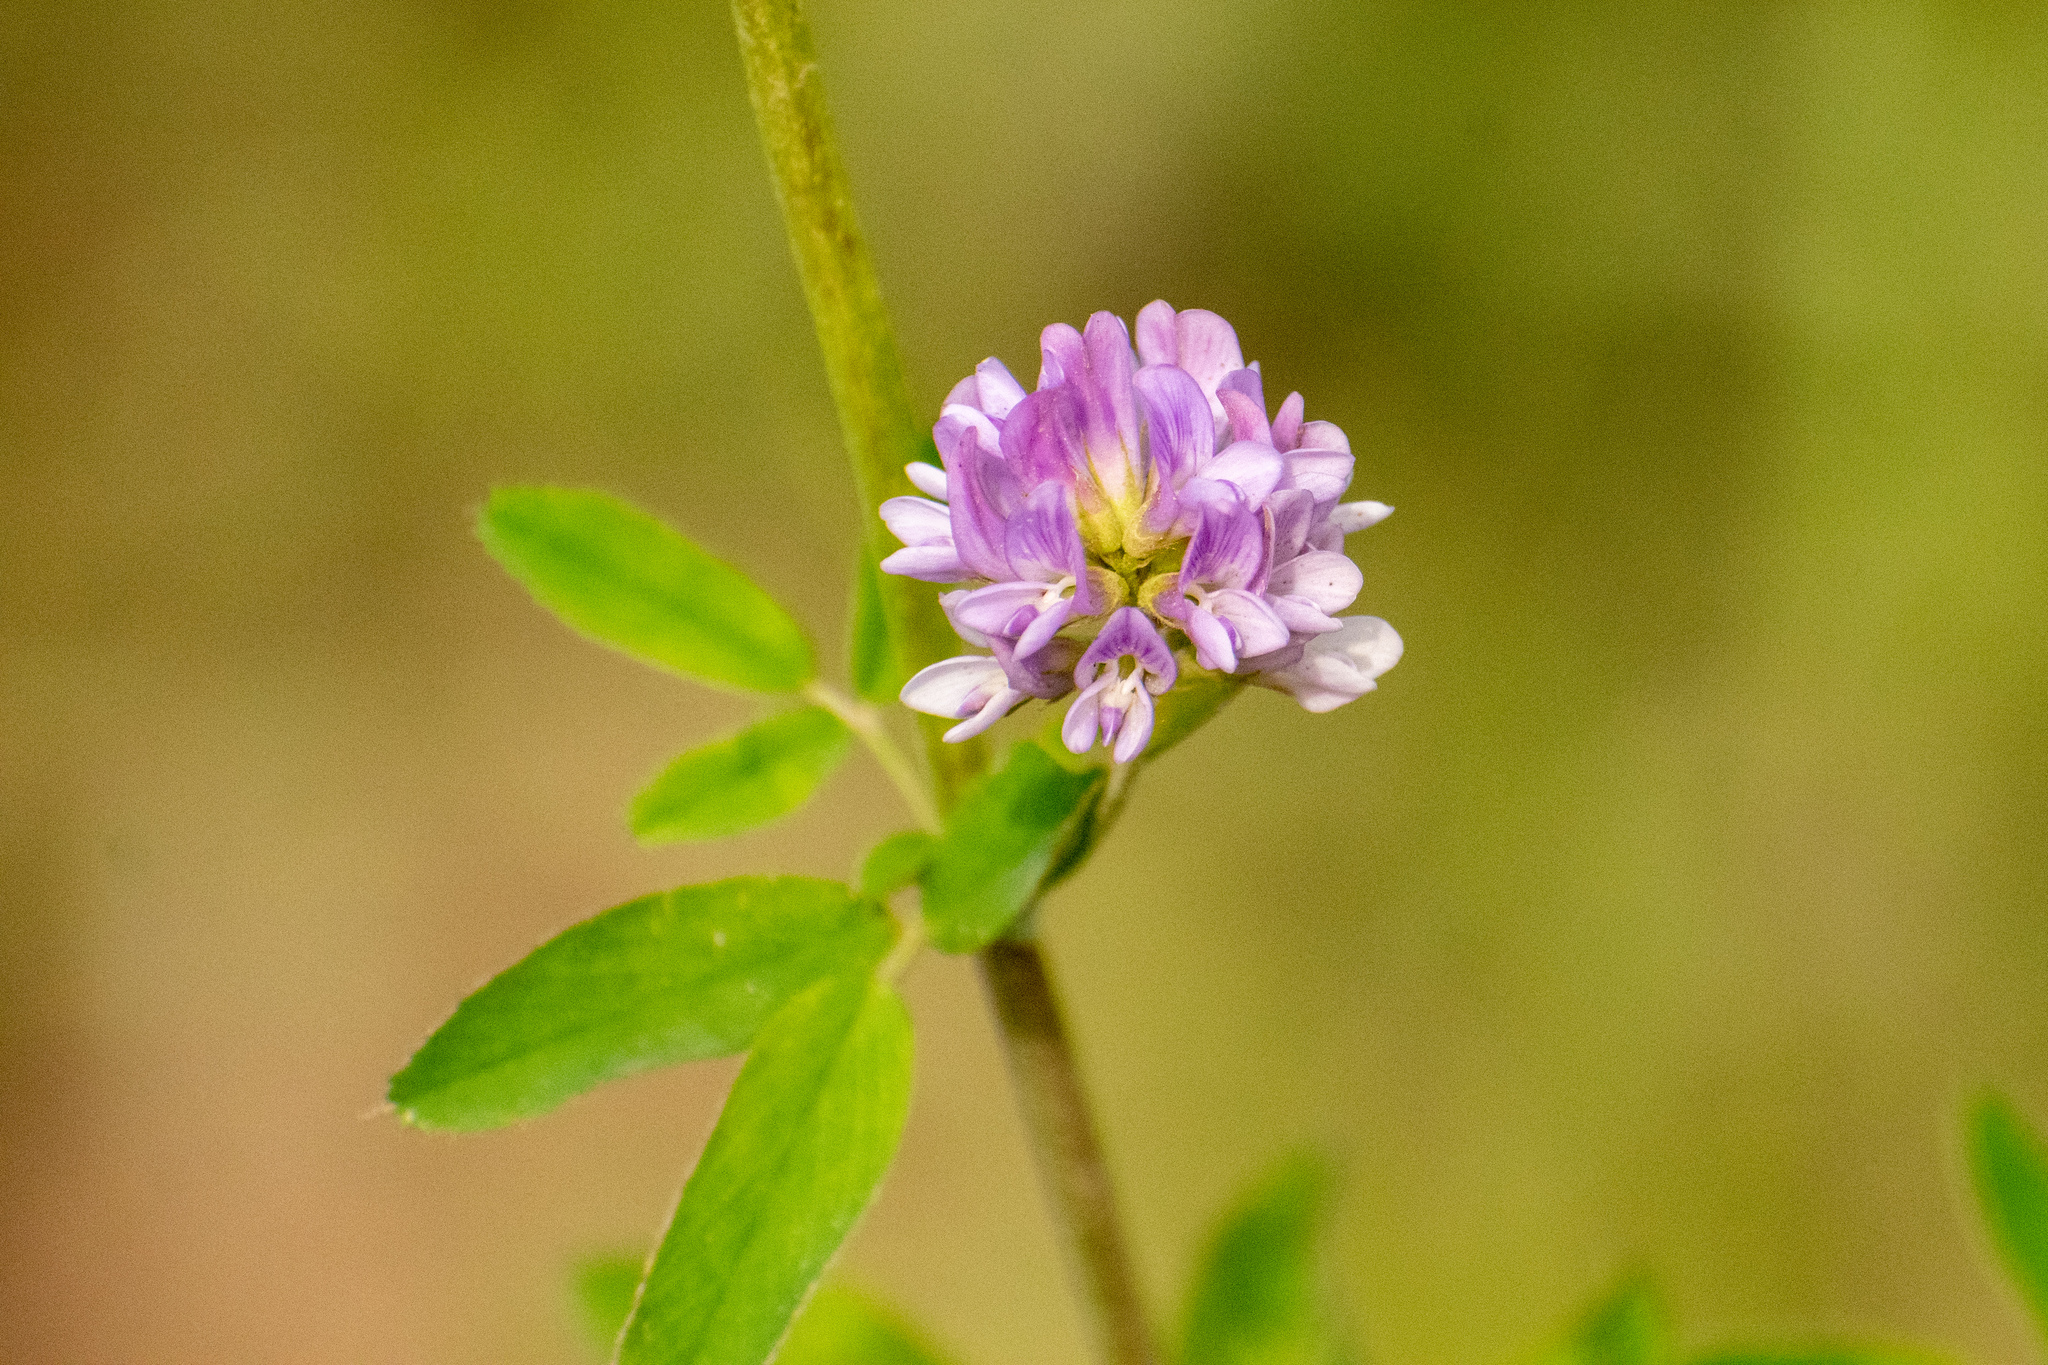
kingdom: Plantae
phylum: Tracheophyta
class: Magnoliopsida
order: Fabales
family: Fabaceae
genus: Medicago
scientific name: Medicago sativa
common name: Alfalfa
